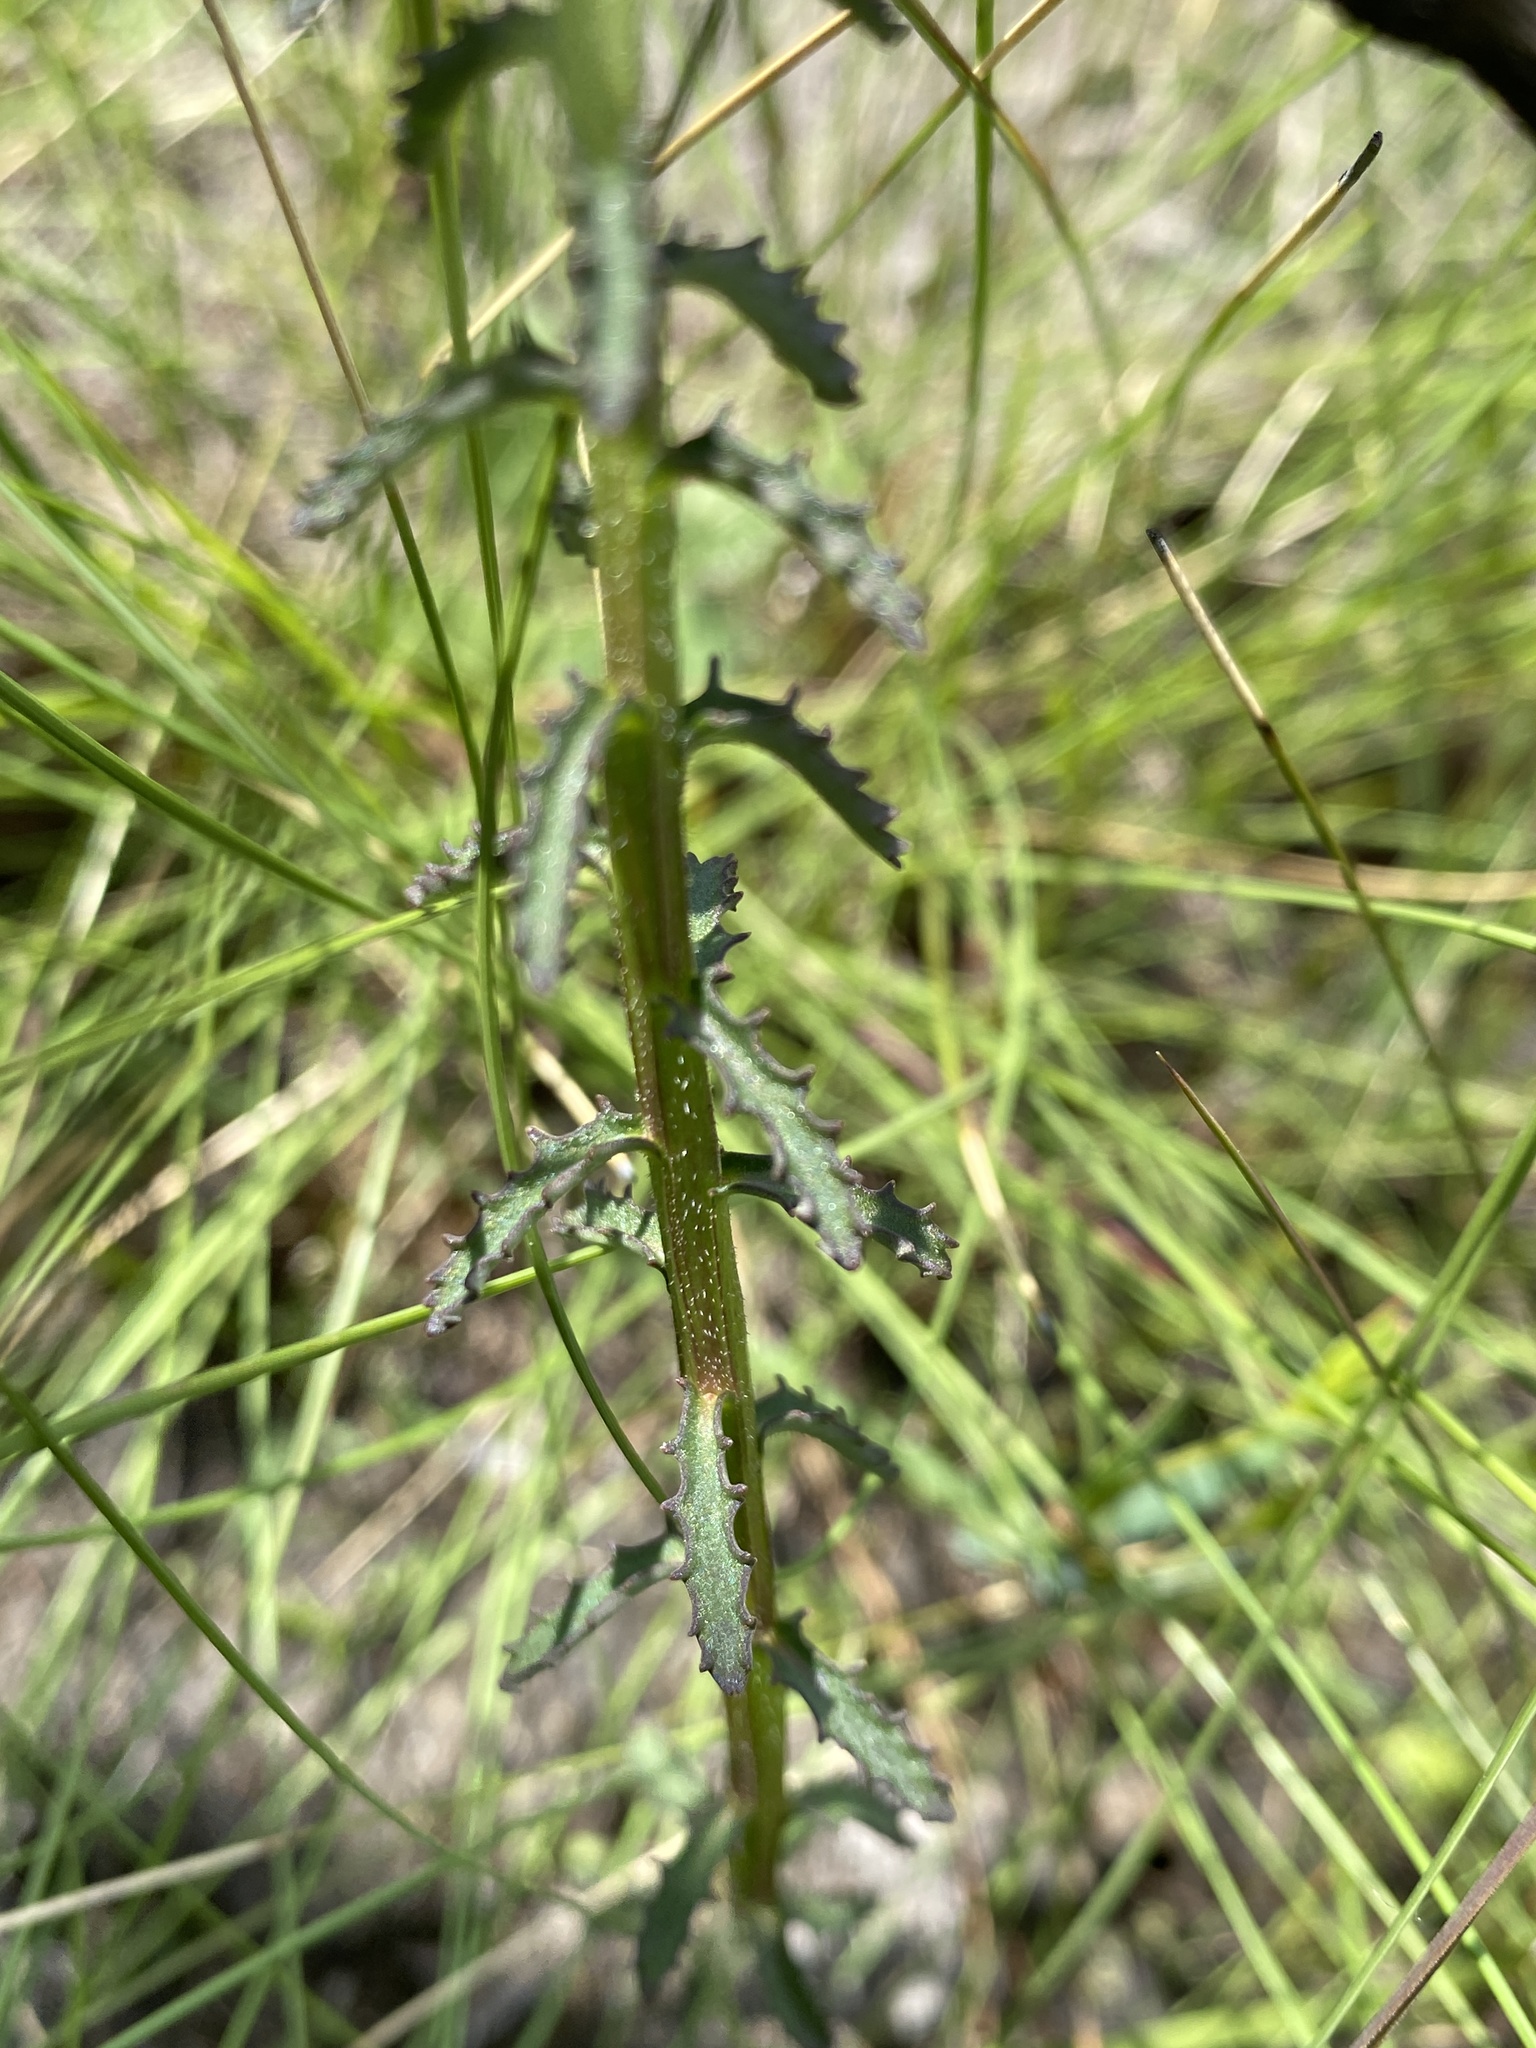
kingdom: Plantae
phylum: Tracheophyta
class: Magnoliopsida
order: Asterales
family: Campanulaceae
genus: Lobelia
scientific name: Lobelia brevifolia
